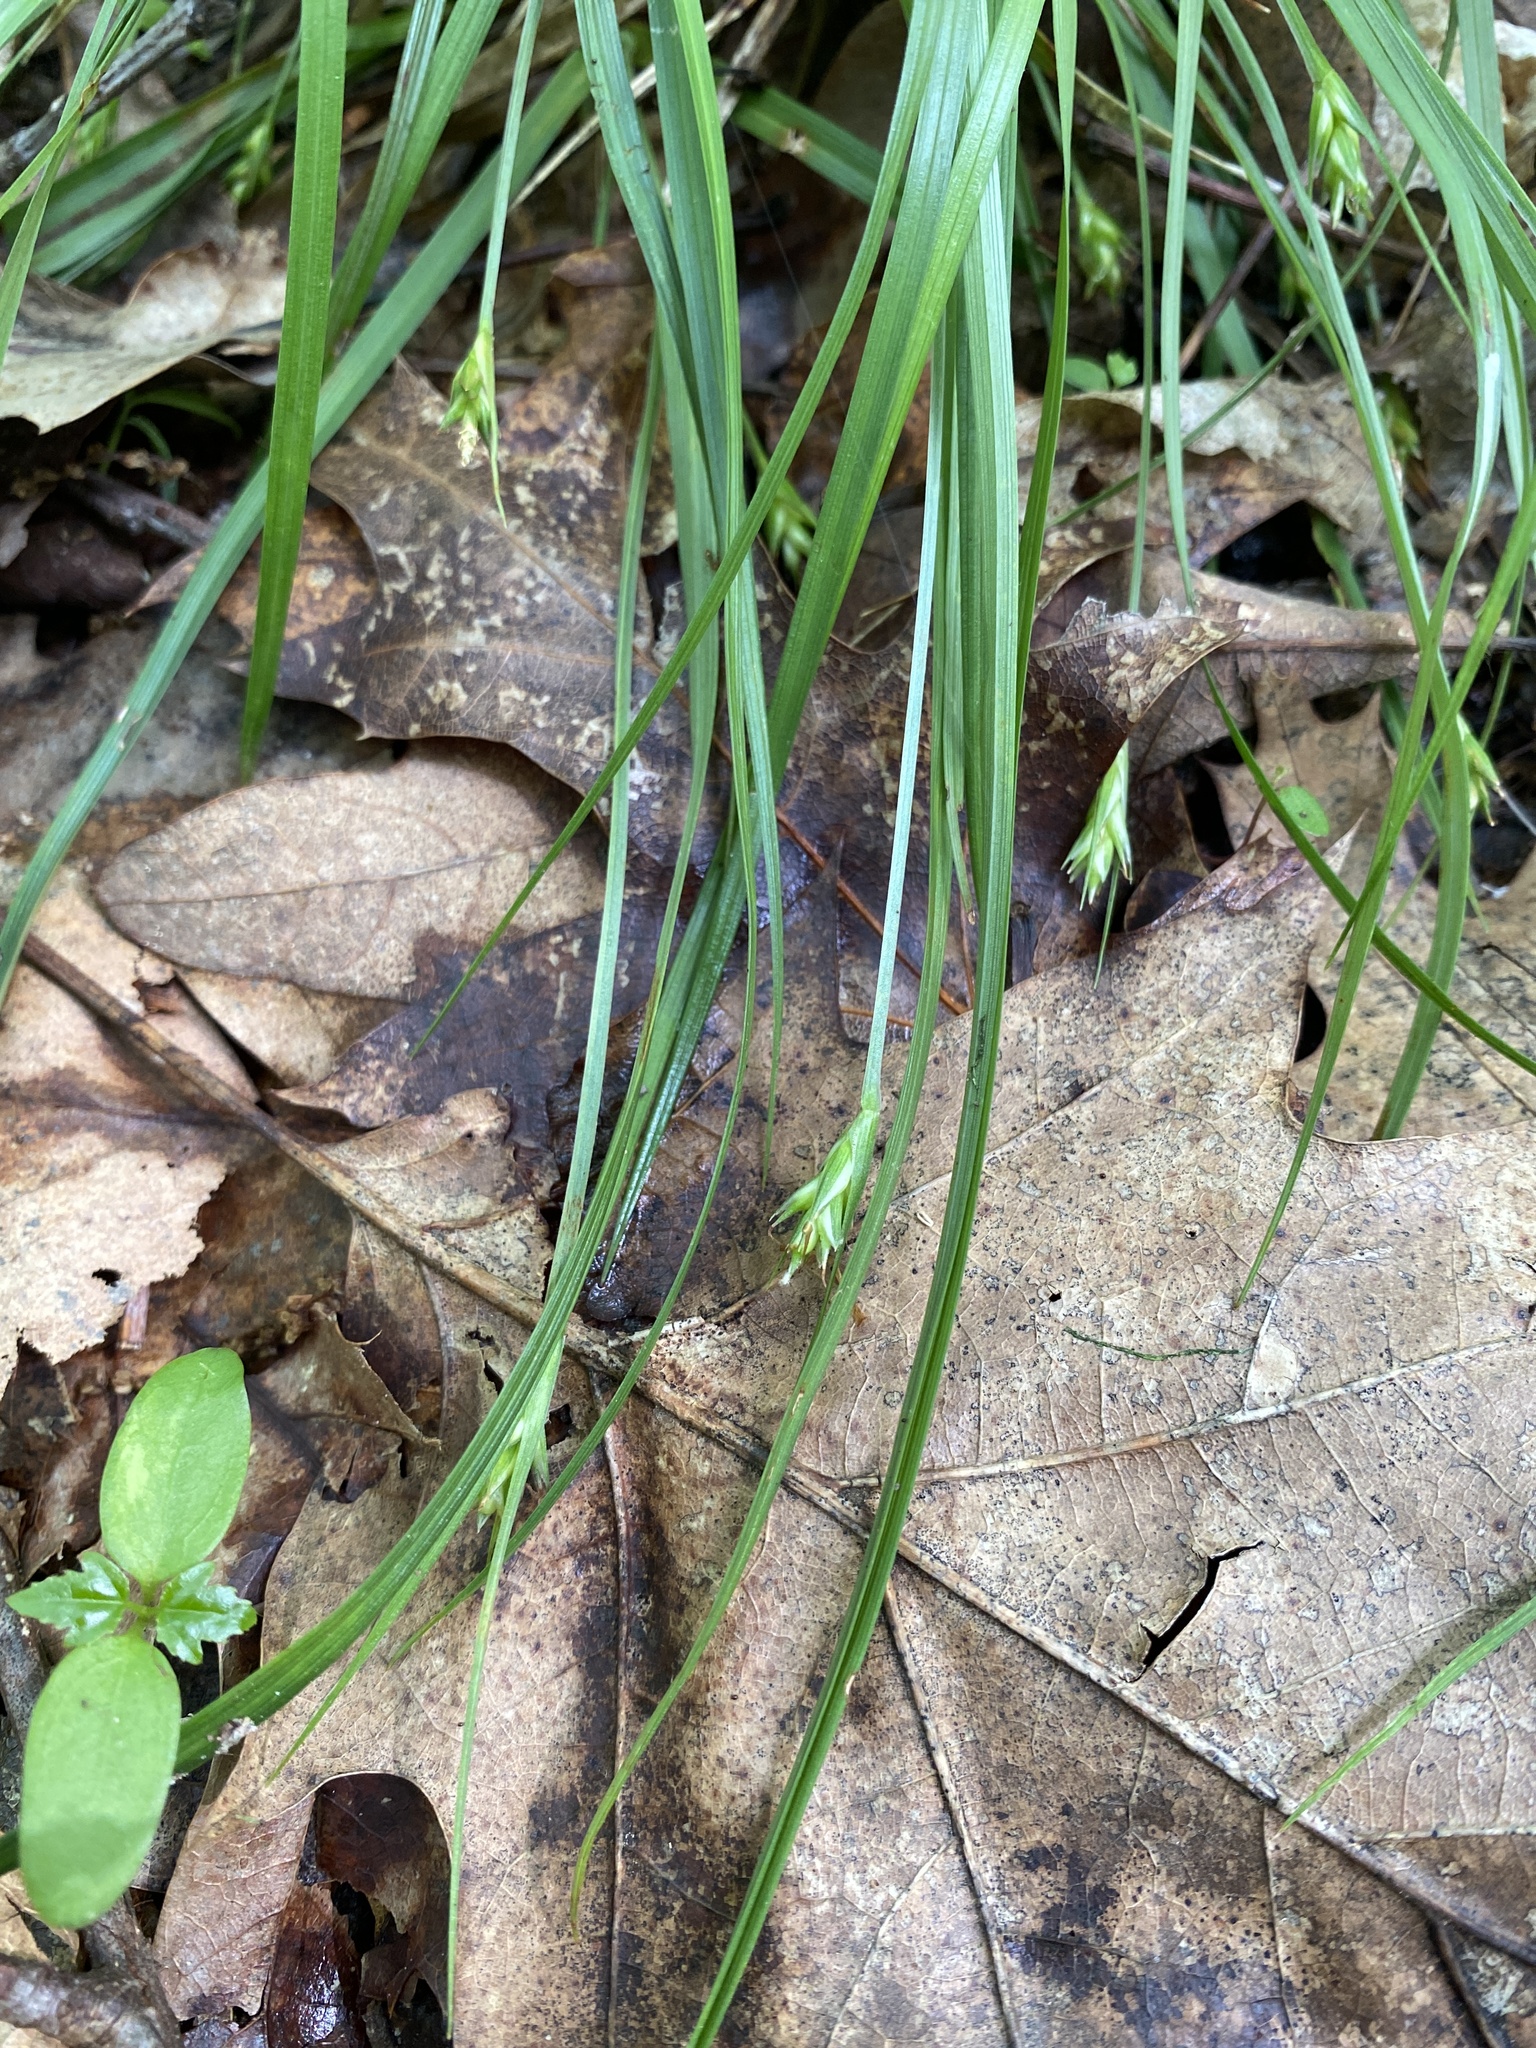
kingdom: Plantae
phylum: Tracheophyta
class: Liliopsida
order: Poales
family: Cyperaceae
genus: Carex
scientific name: Carex willdenowii
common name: Willdenow's sedge
